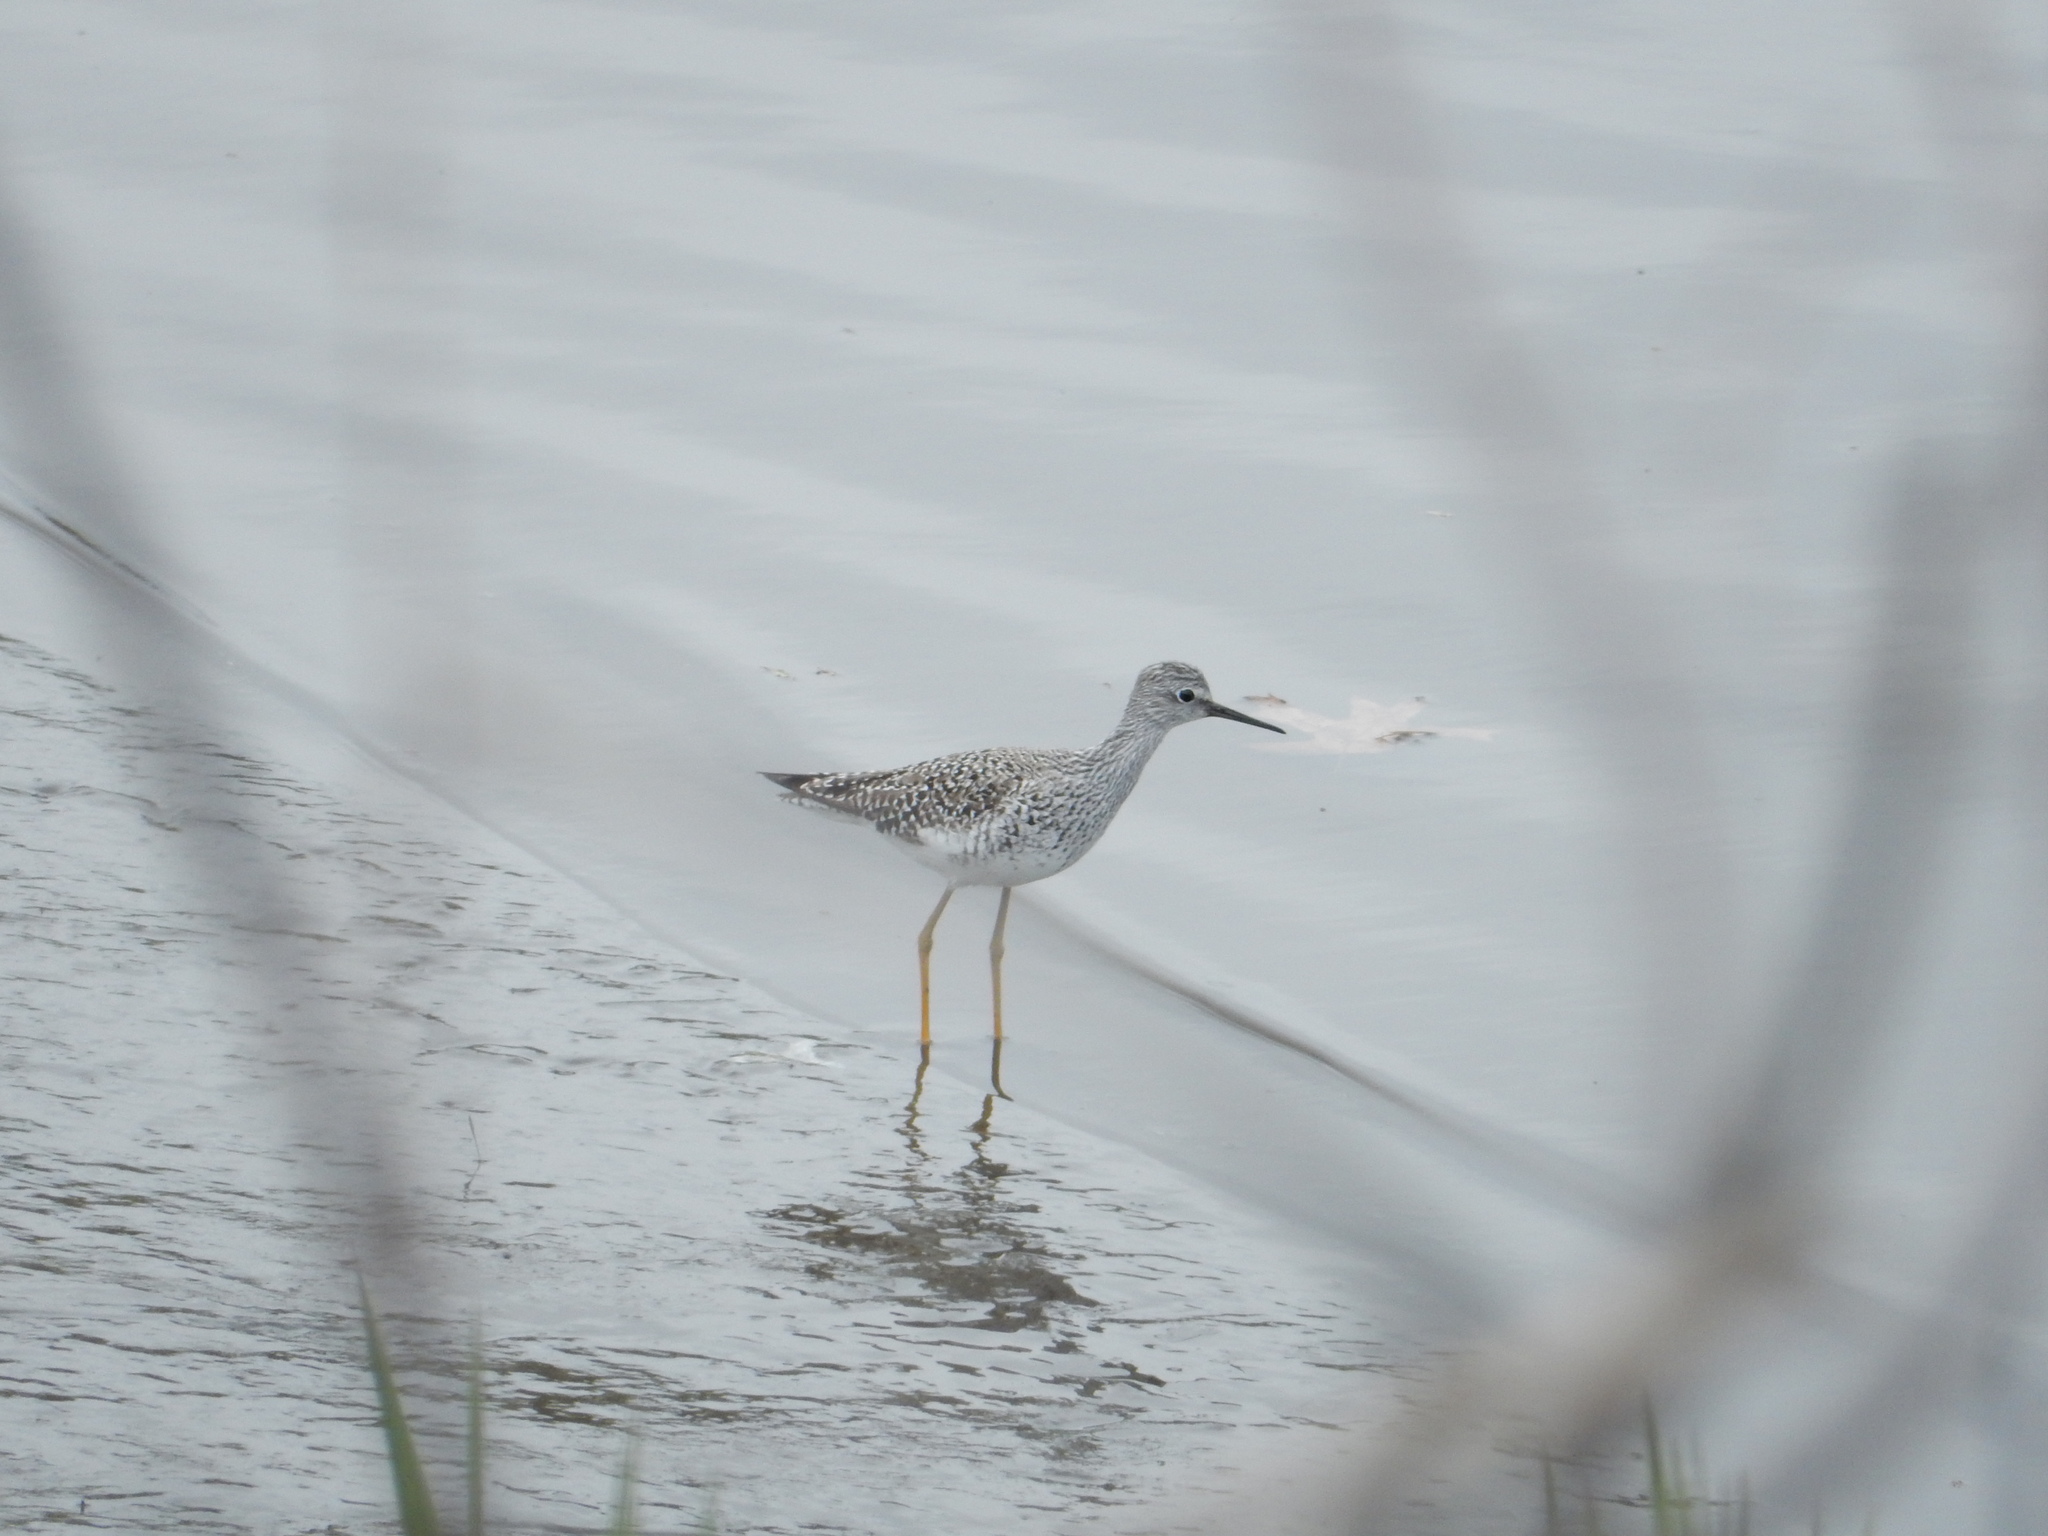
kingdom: Animalia
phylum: Chordata
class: Aves
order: Charadriiformes
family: Scolopacidae
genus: Tringa
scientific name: Tringa flavipes
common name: Lesser yellowlegs
